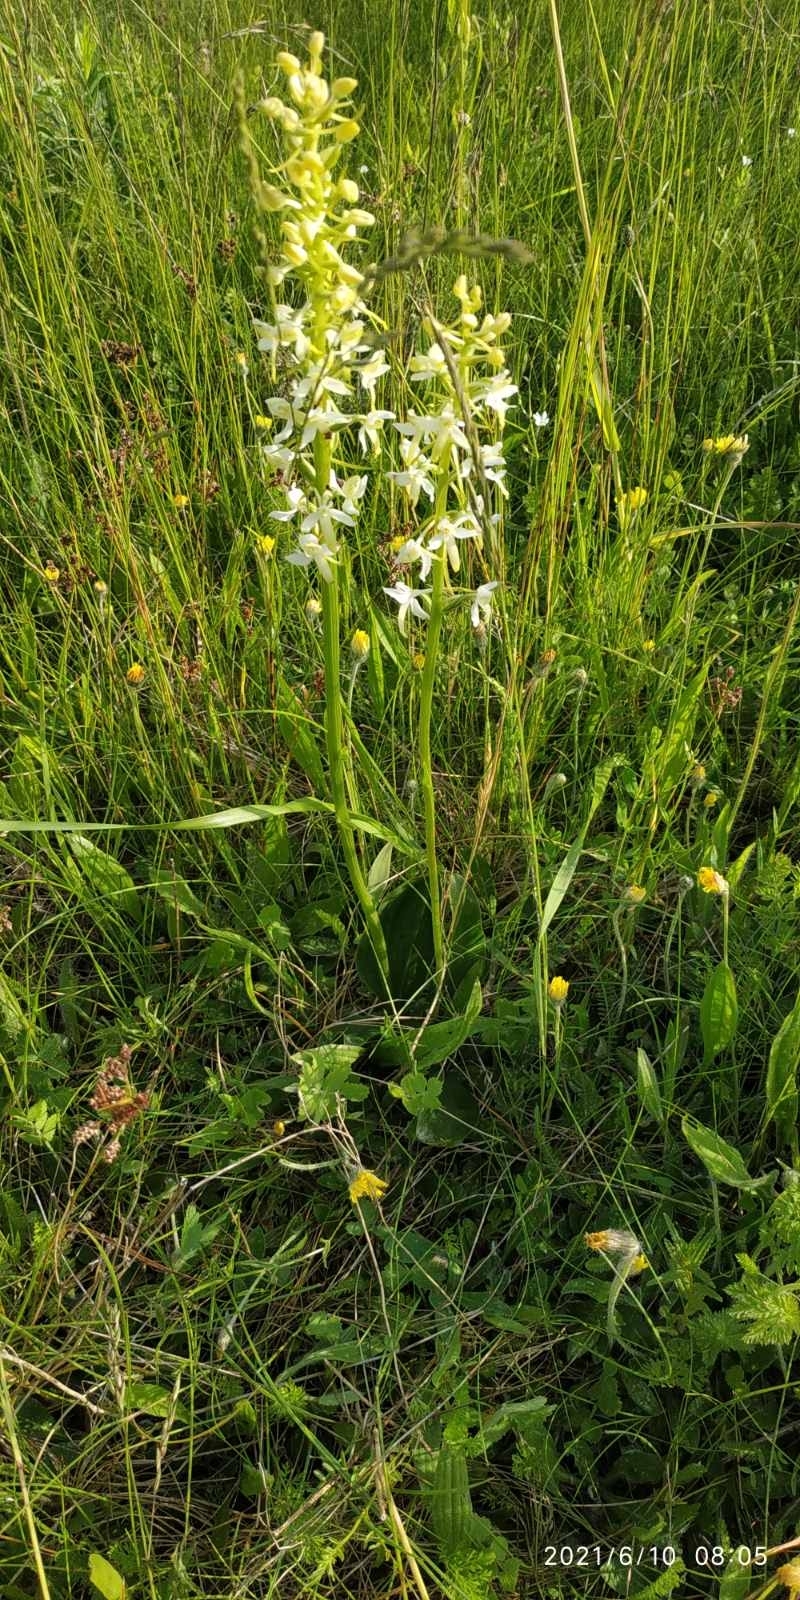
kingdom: Plantae
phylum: Tracheophyta
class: Liliopsida
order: Asparagales
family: Orchidaceae
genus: Platanthera
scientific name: Platanthera bifolia
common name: Lesser butterfly-orchid
